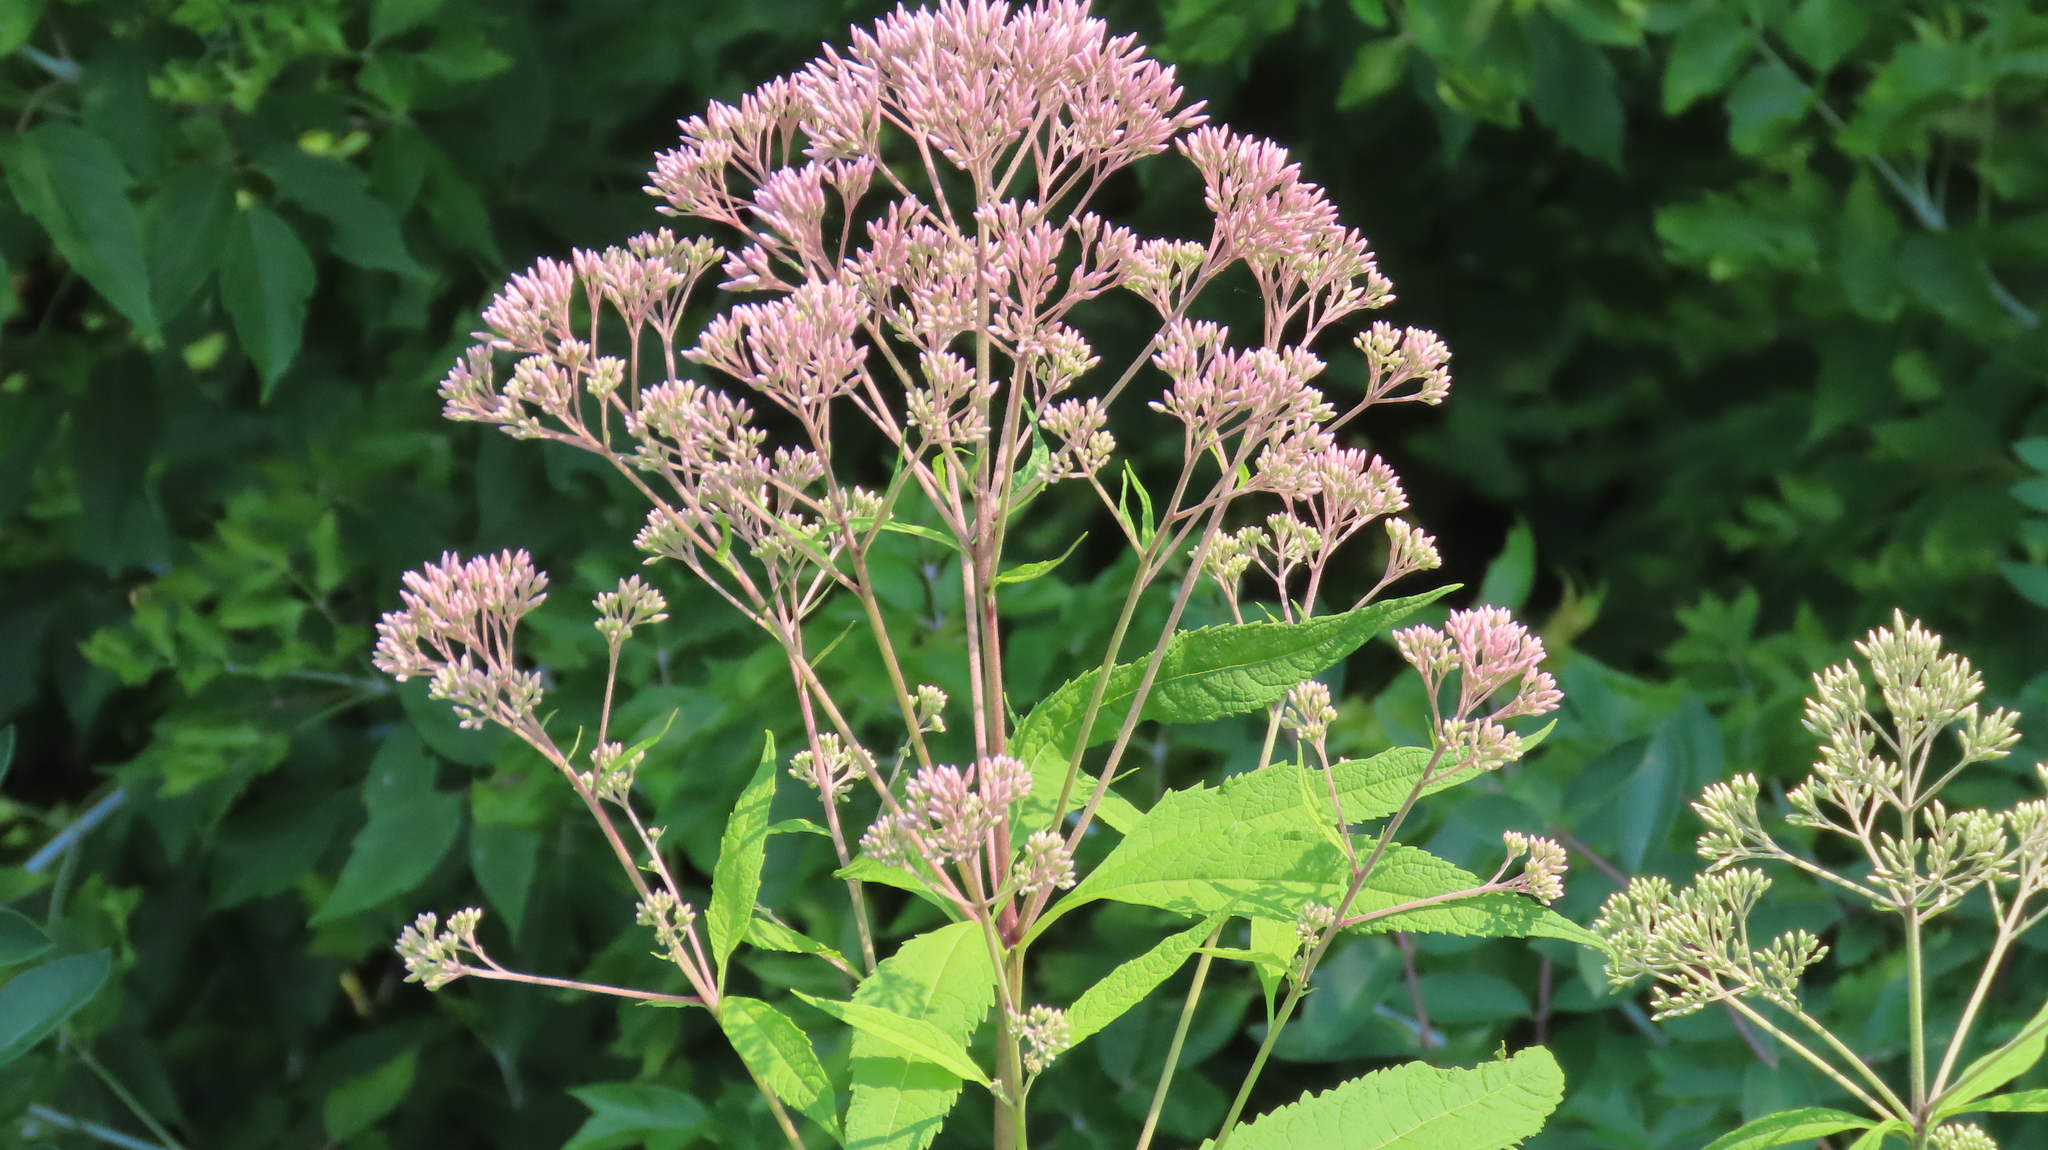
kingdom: Plantae
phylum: Tracheophyta
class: Magnoliopsida
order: Asterales
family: Asteraceae
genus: Eutrochium
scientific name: Eutrochium purpureum
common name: Gravelroot
